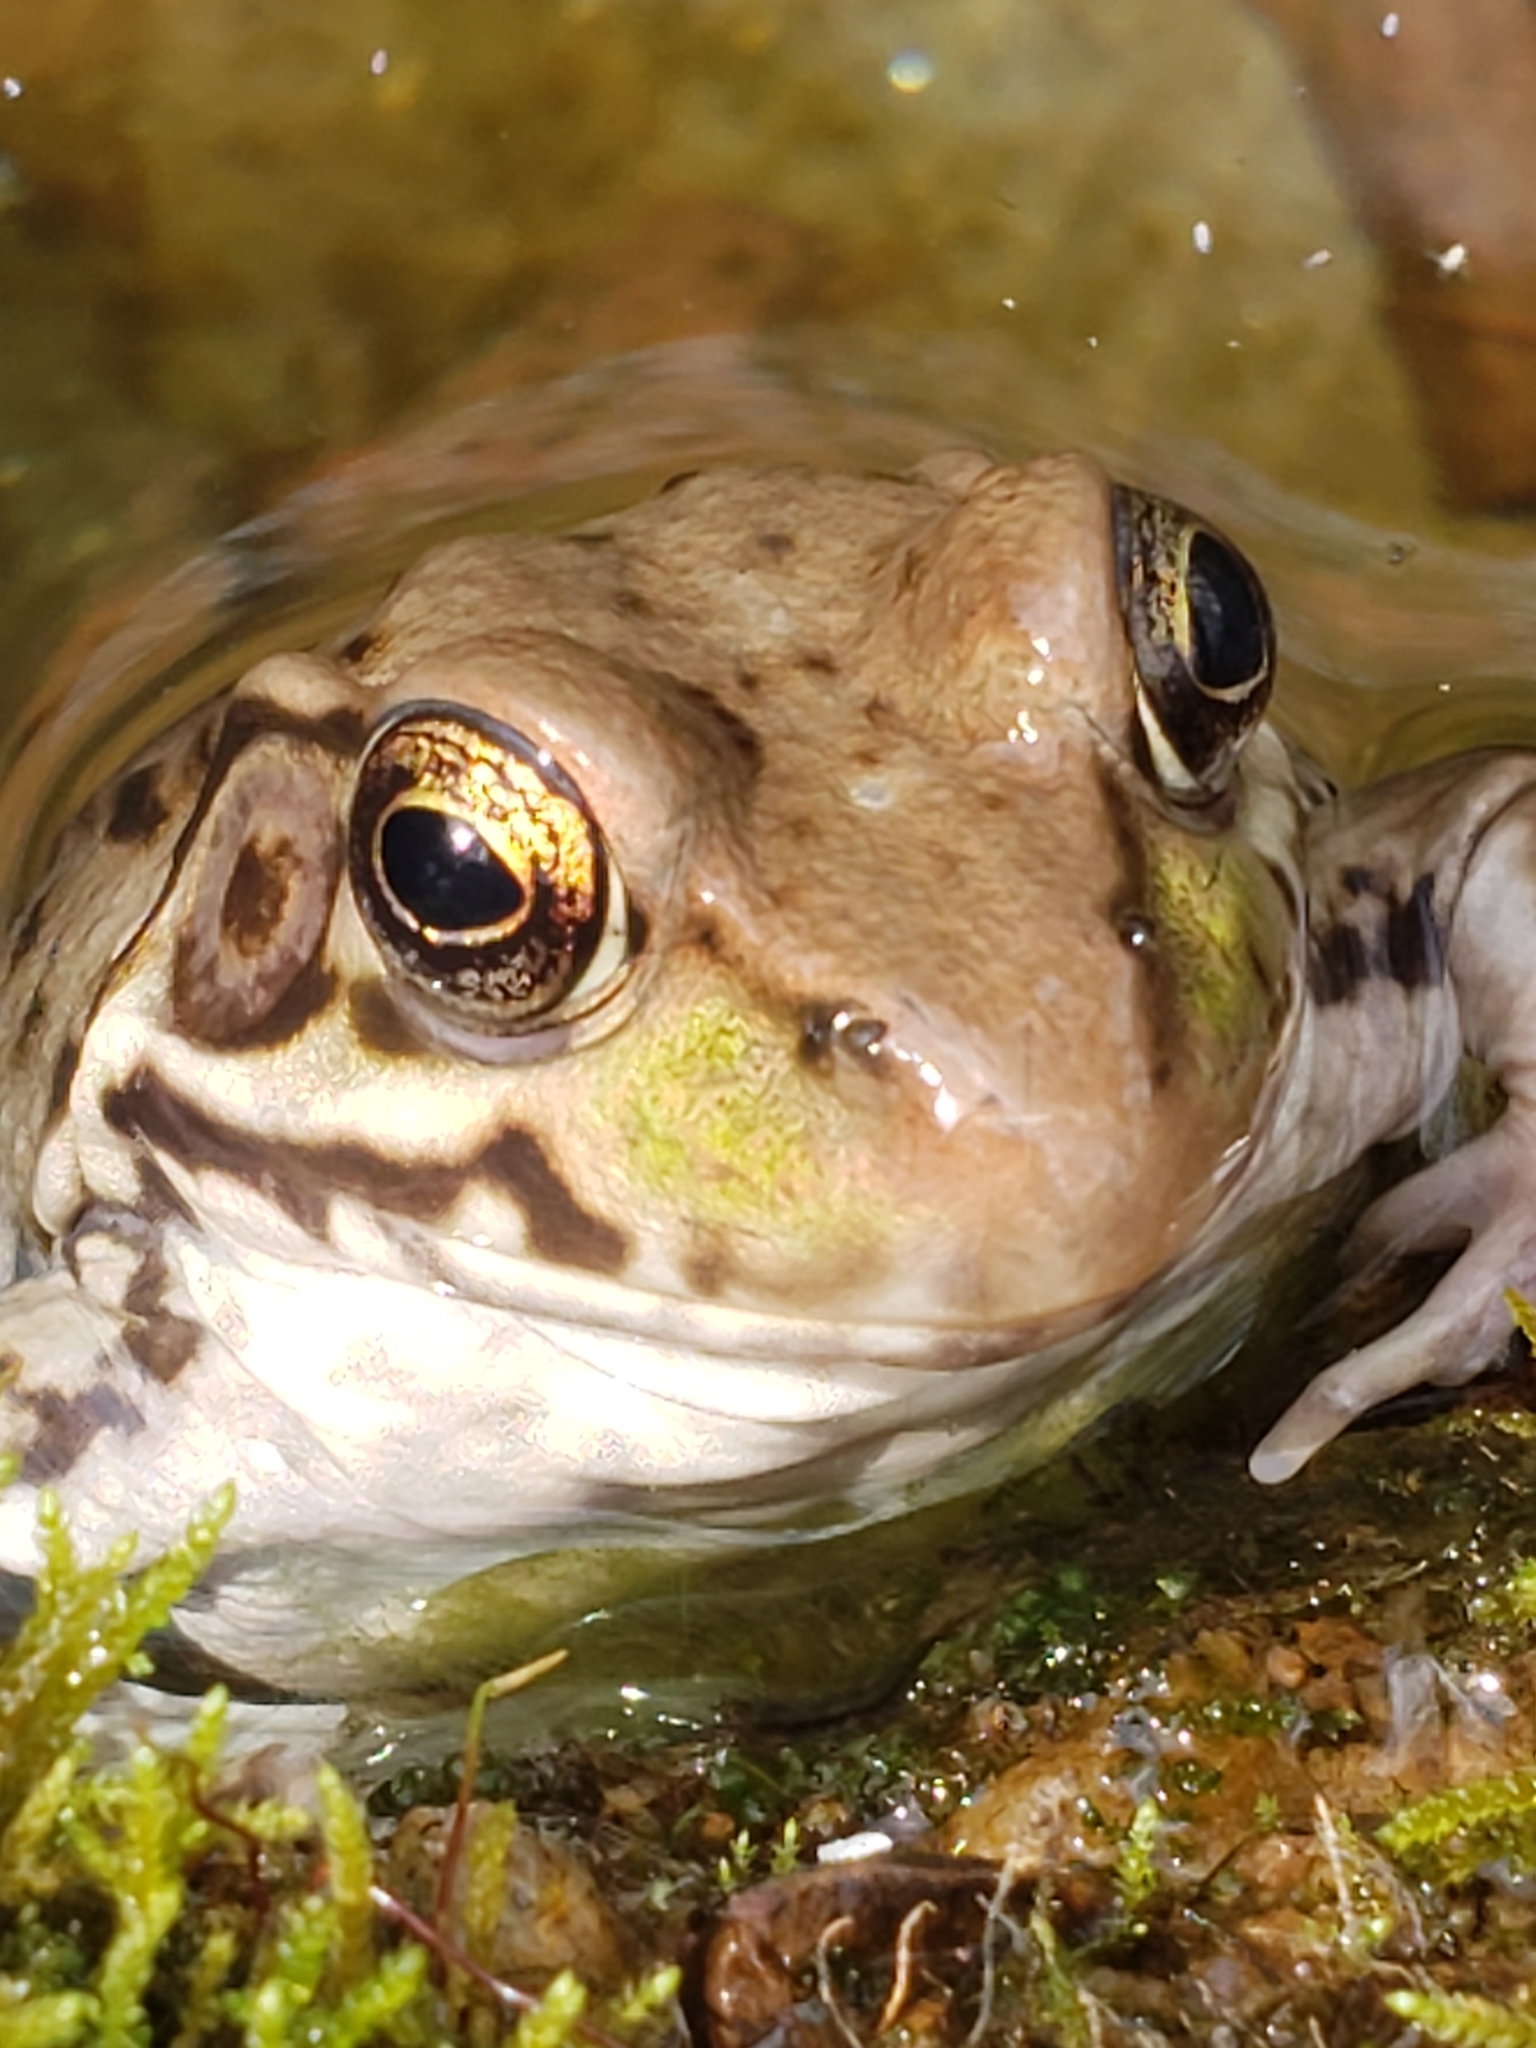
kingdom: Animalia
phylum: Chordata
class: Amphibia
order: Anura
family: Ranidae
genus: Lithobates
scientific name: Lithobates clamitans
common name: Green frog
